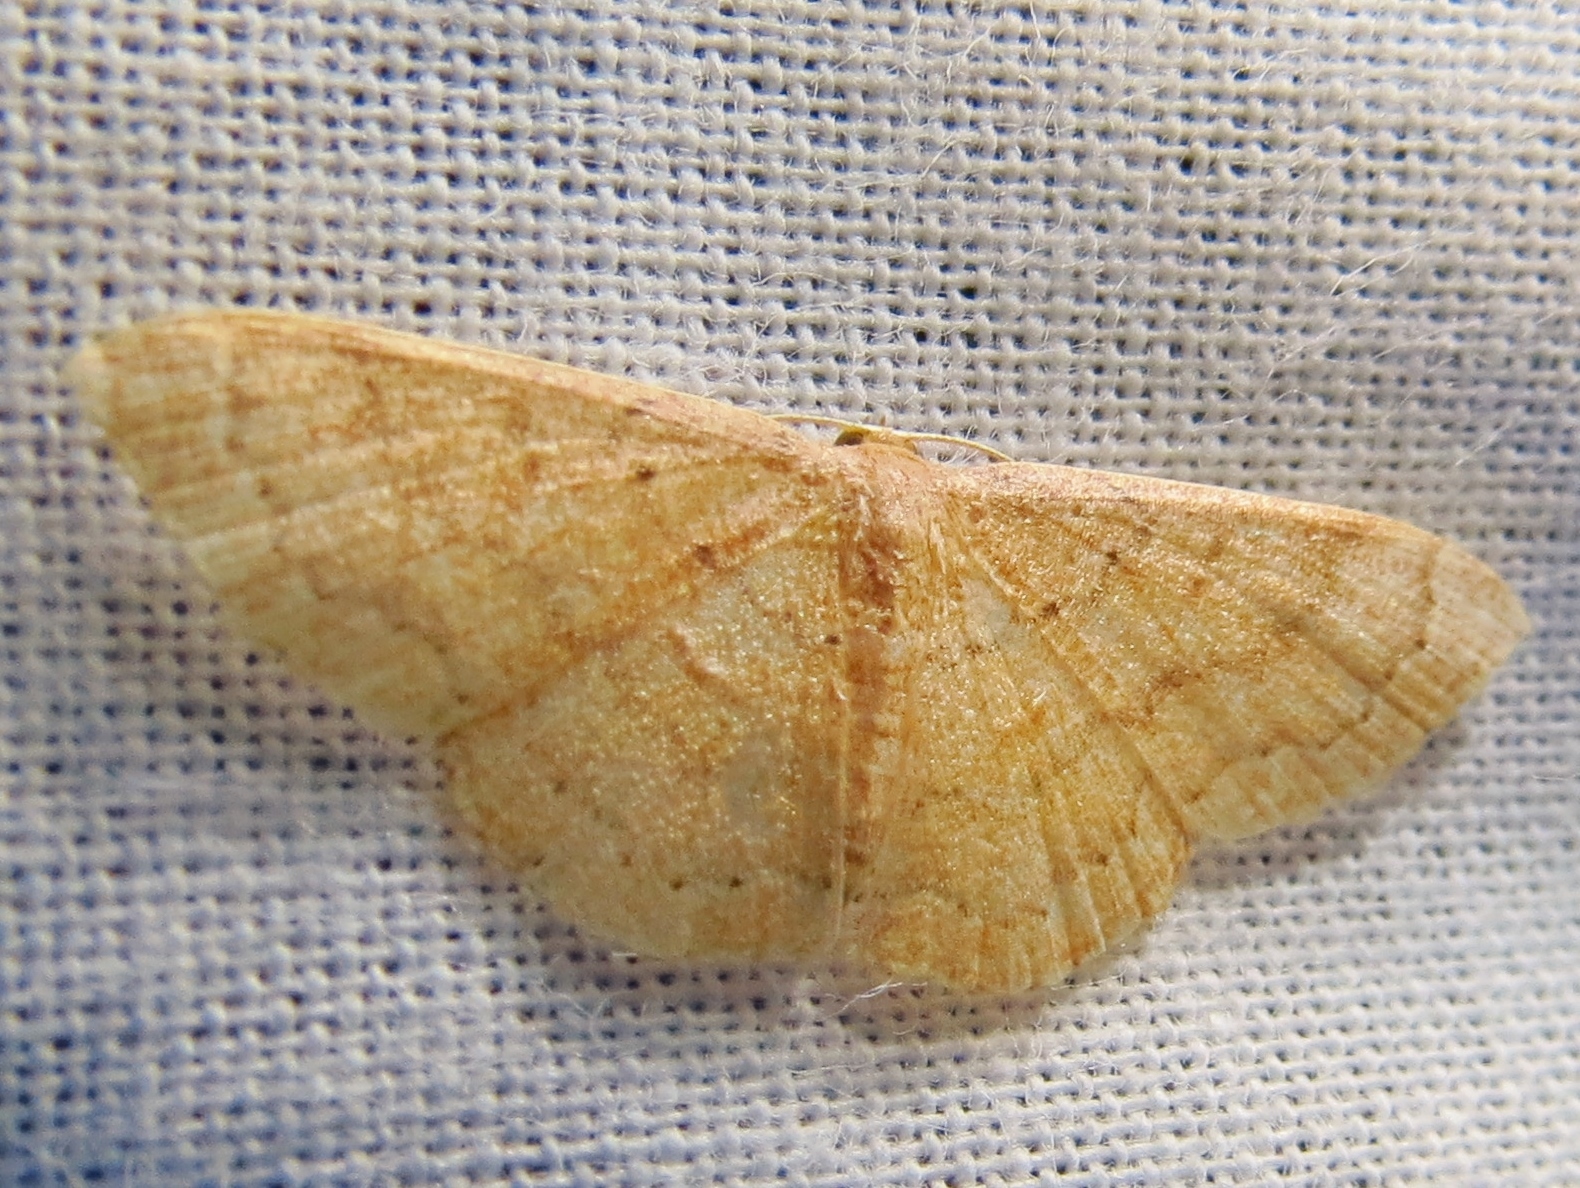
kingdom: Animalia
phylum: Arthropoda
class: Insecta
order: Lepidoptera
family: Geometridae
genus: Pleuroprucha
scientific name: Pleuroprucha insulsaria
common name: Common tan wave
